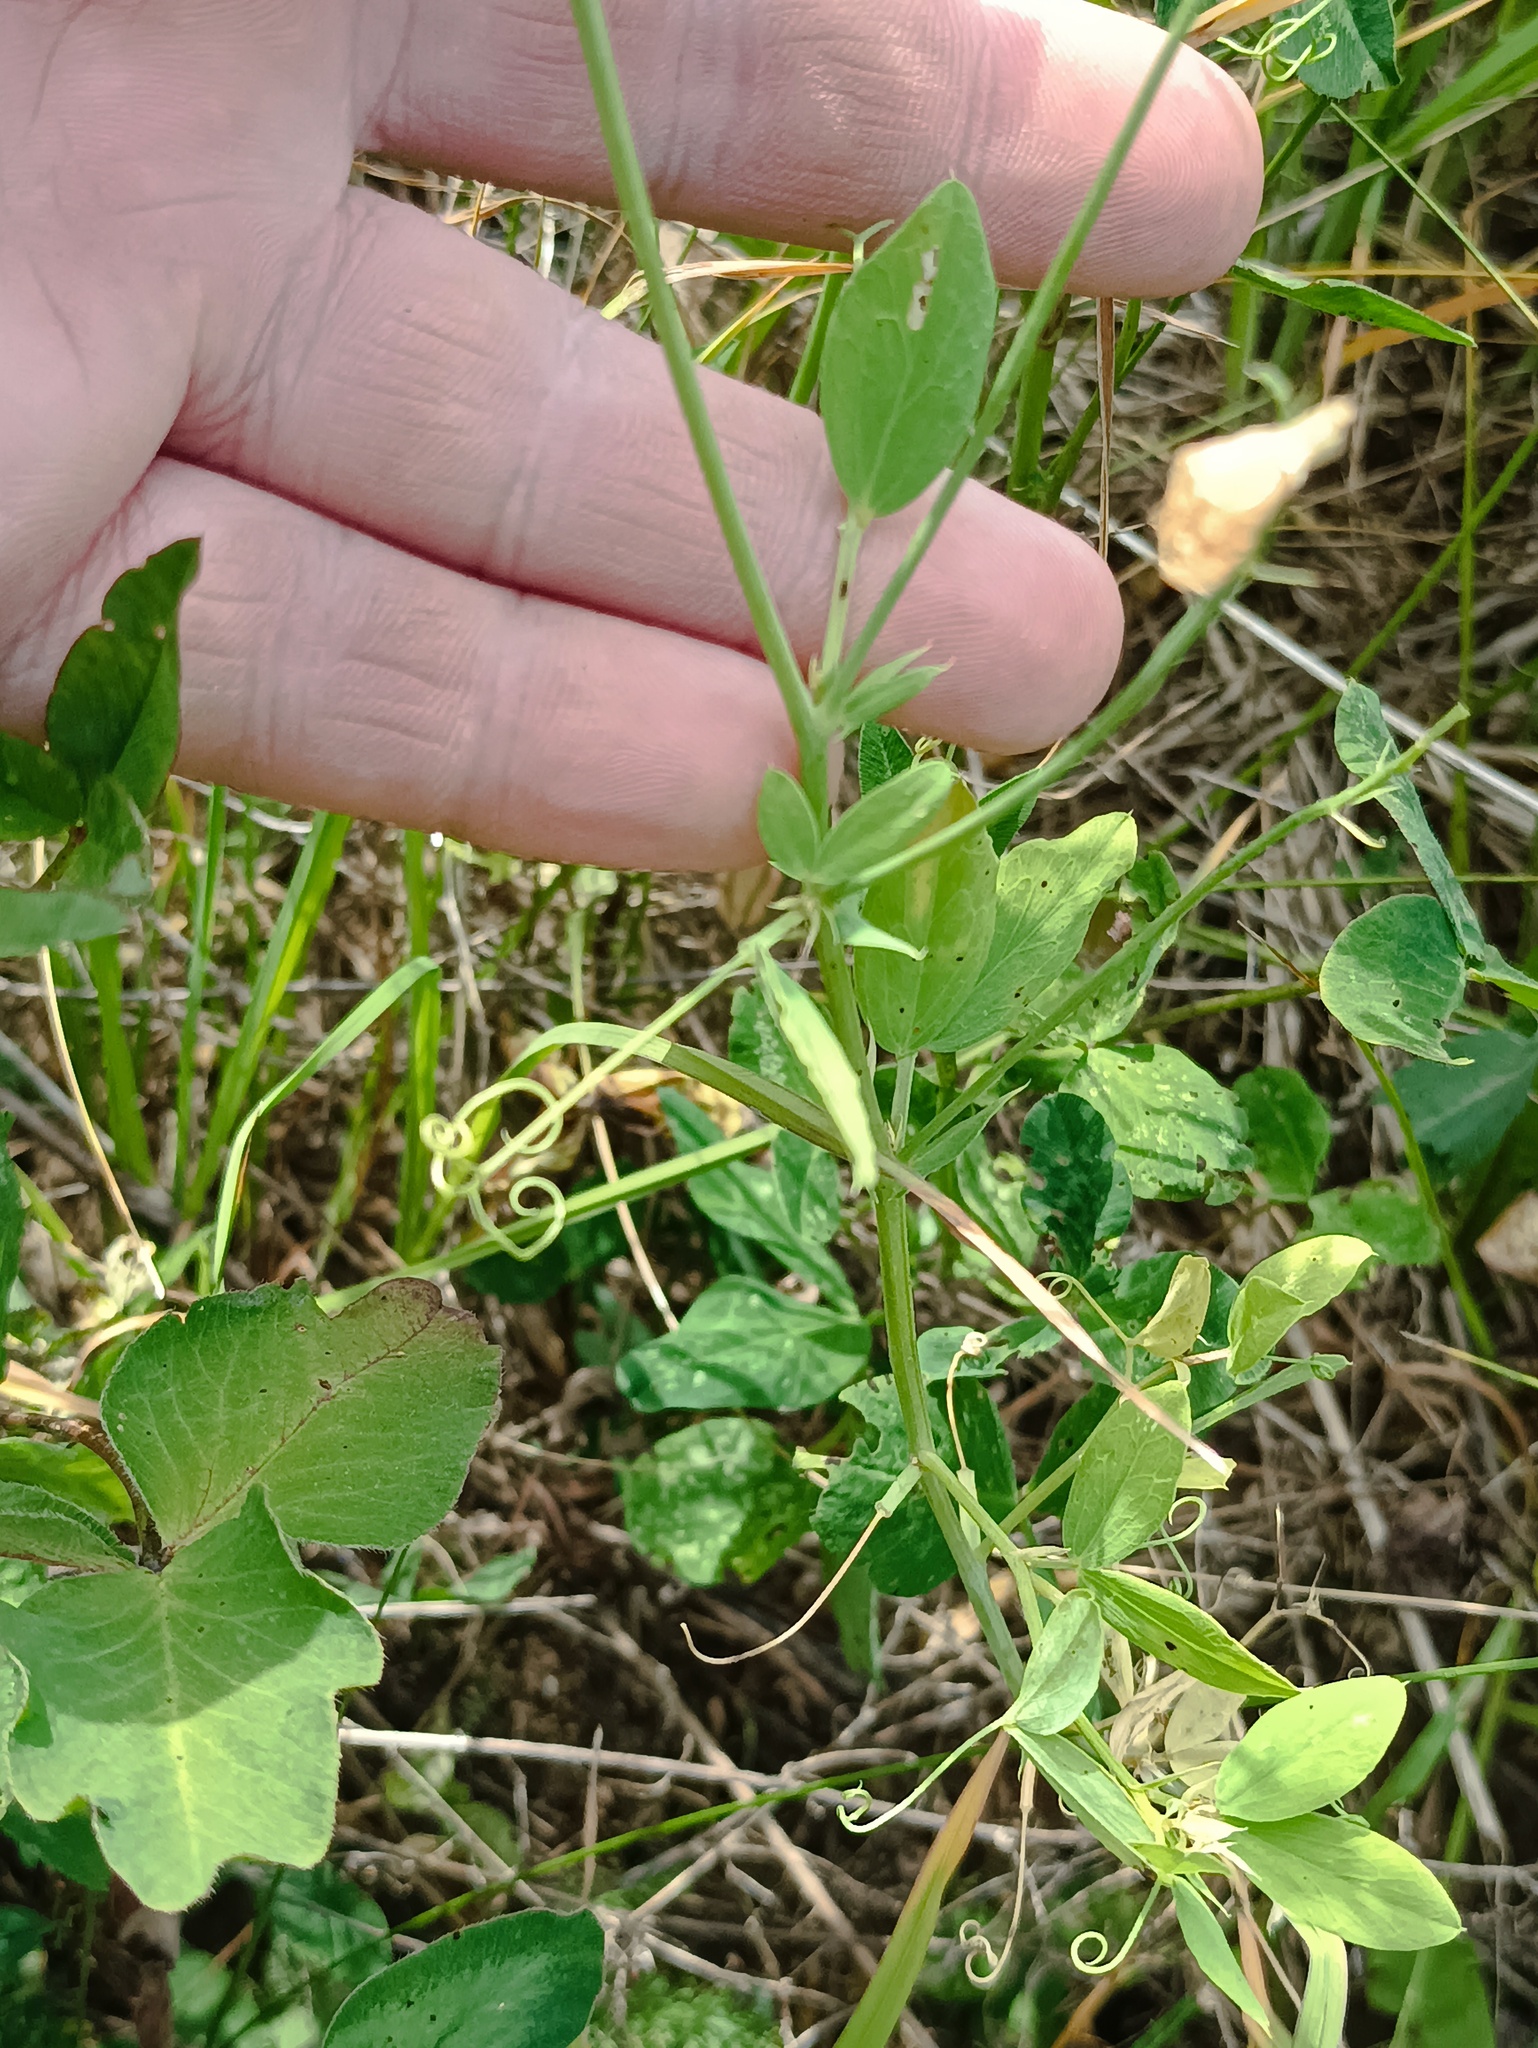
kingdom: Plantae
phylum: Tracheophyta
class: Magnoliopsida
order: Fabales
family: Fabaceae
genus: Lathyrus
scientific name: Lathyrus tuberosus
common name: Tuberous pea
